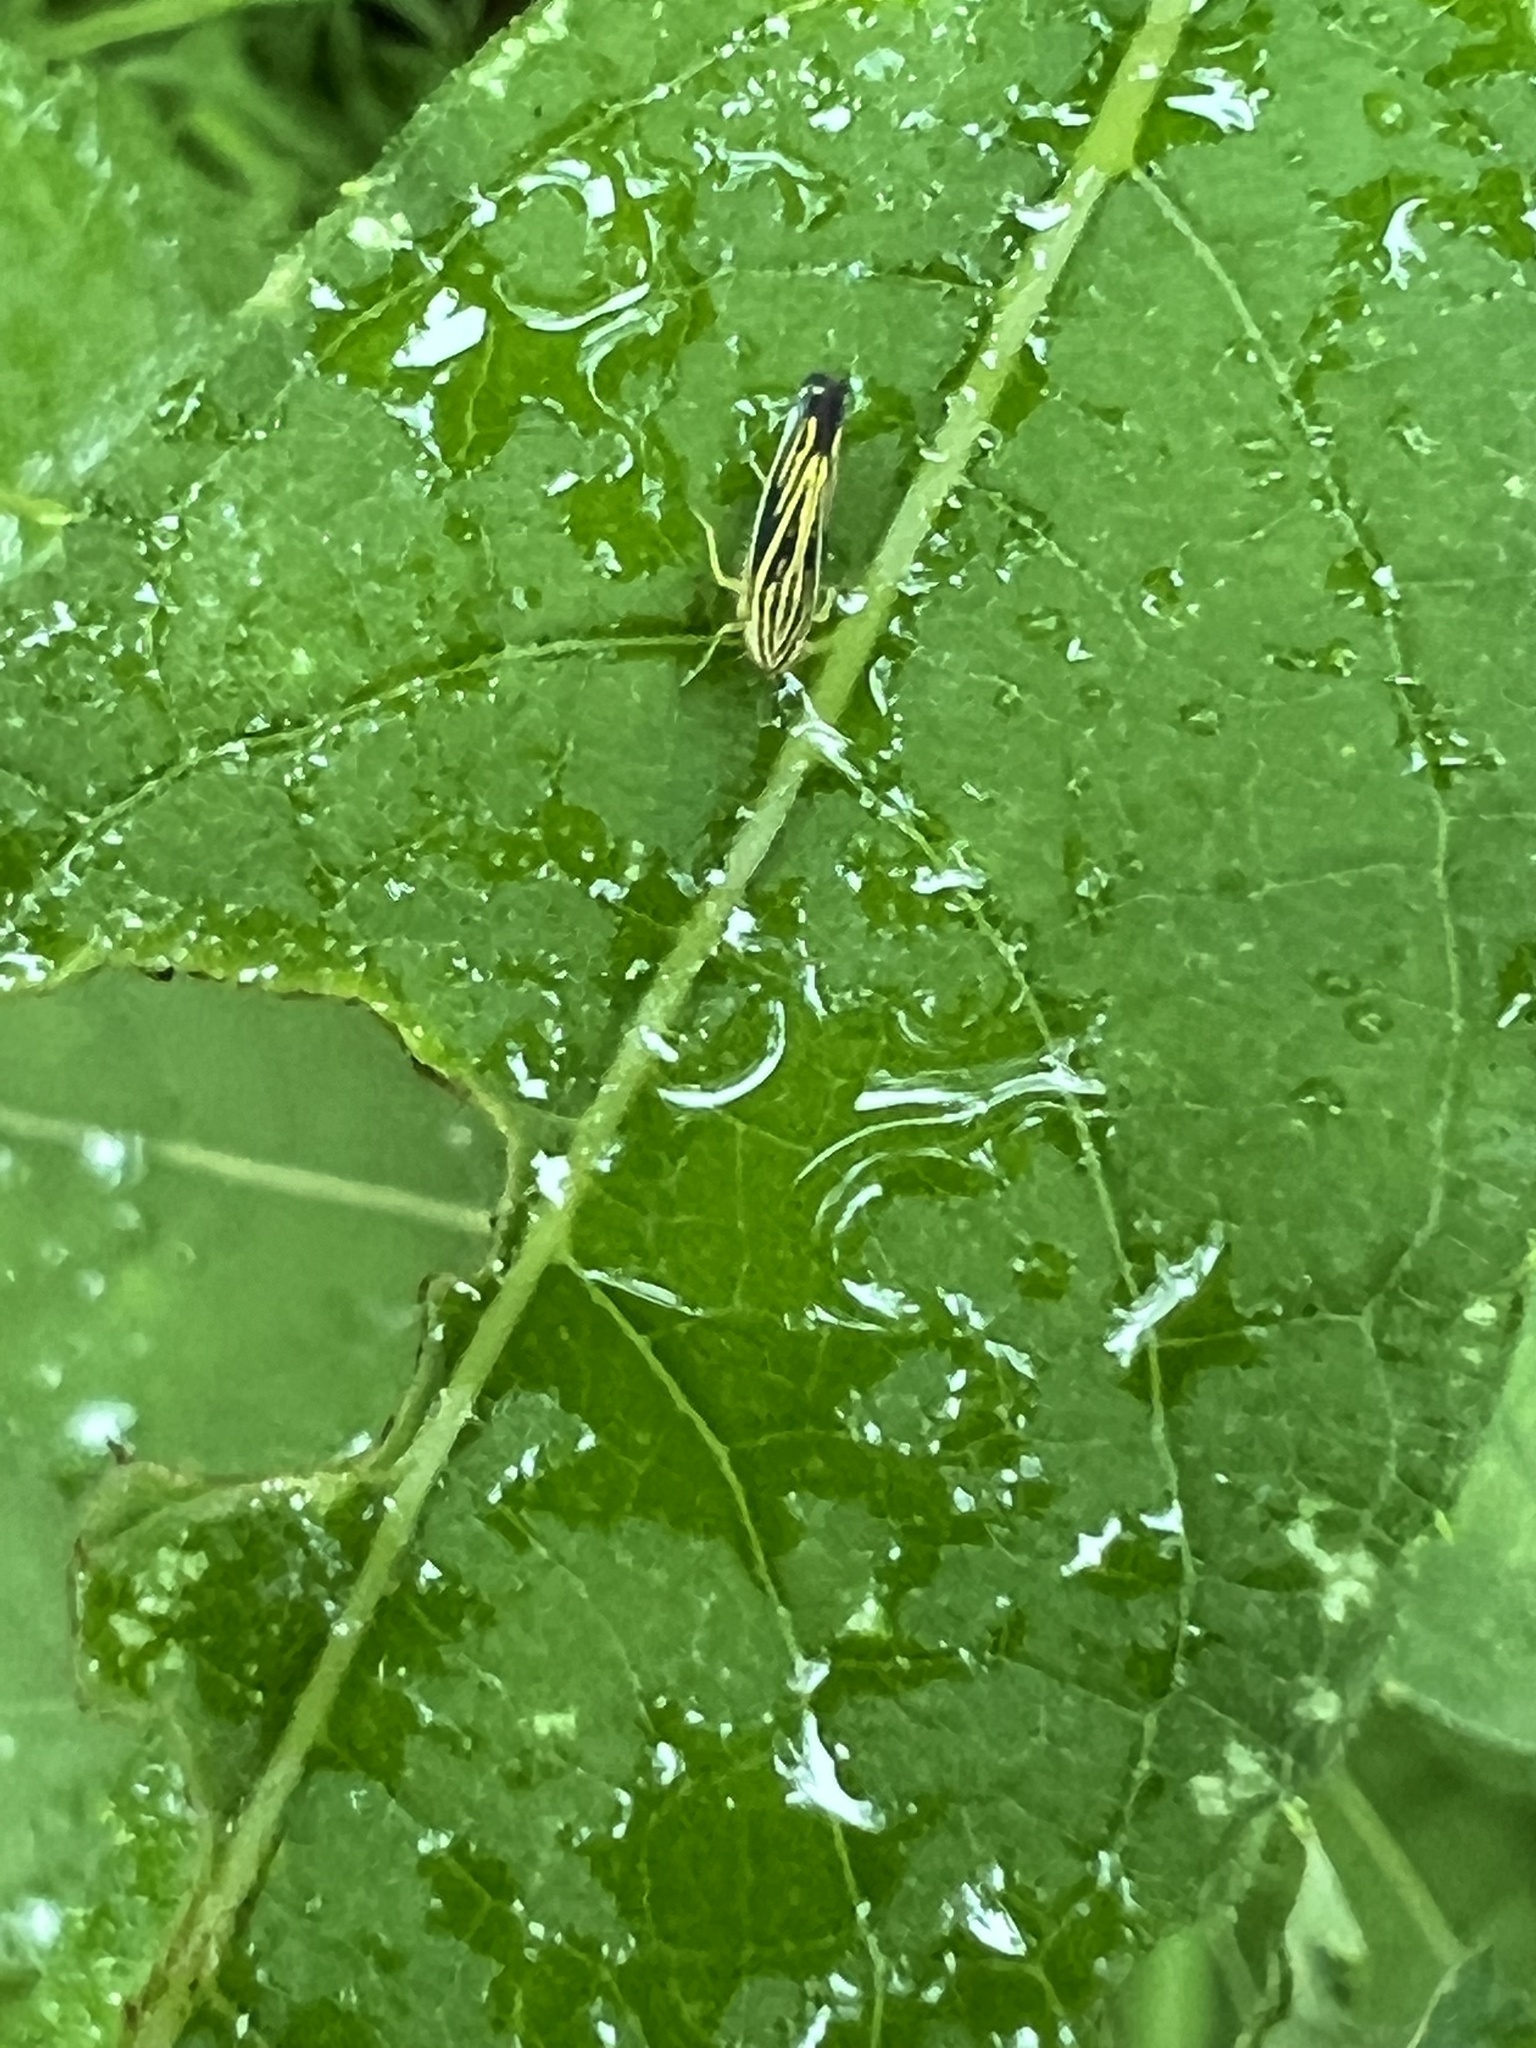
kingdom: Animalia
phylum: Arthropoda
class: Insecta
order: Hemiptera
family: Cicadellidae
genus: Sibovia
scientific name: Sibovia occatoria
